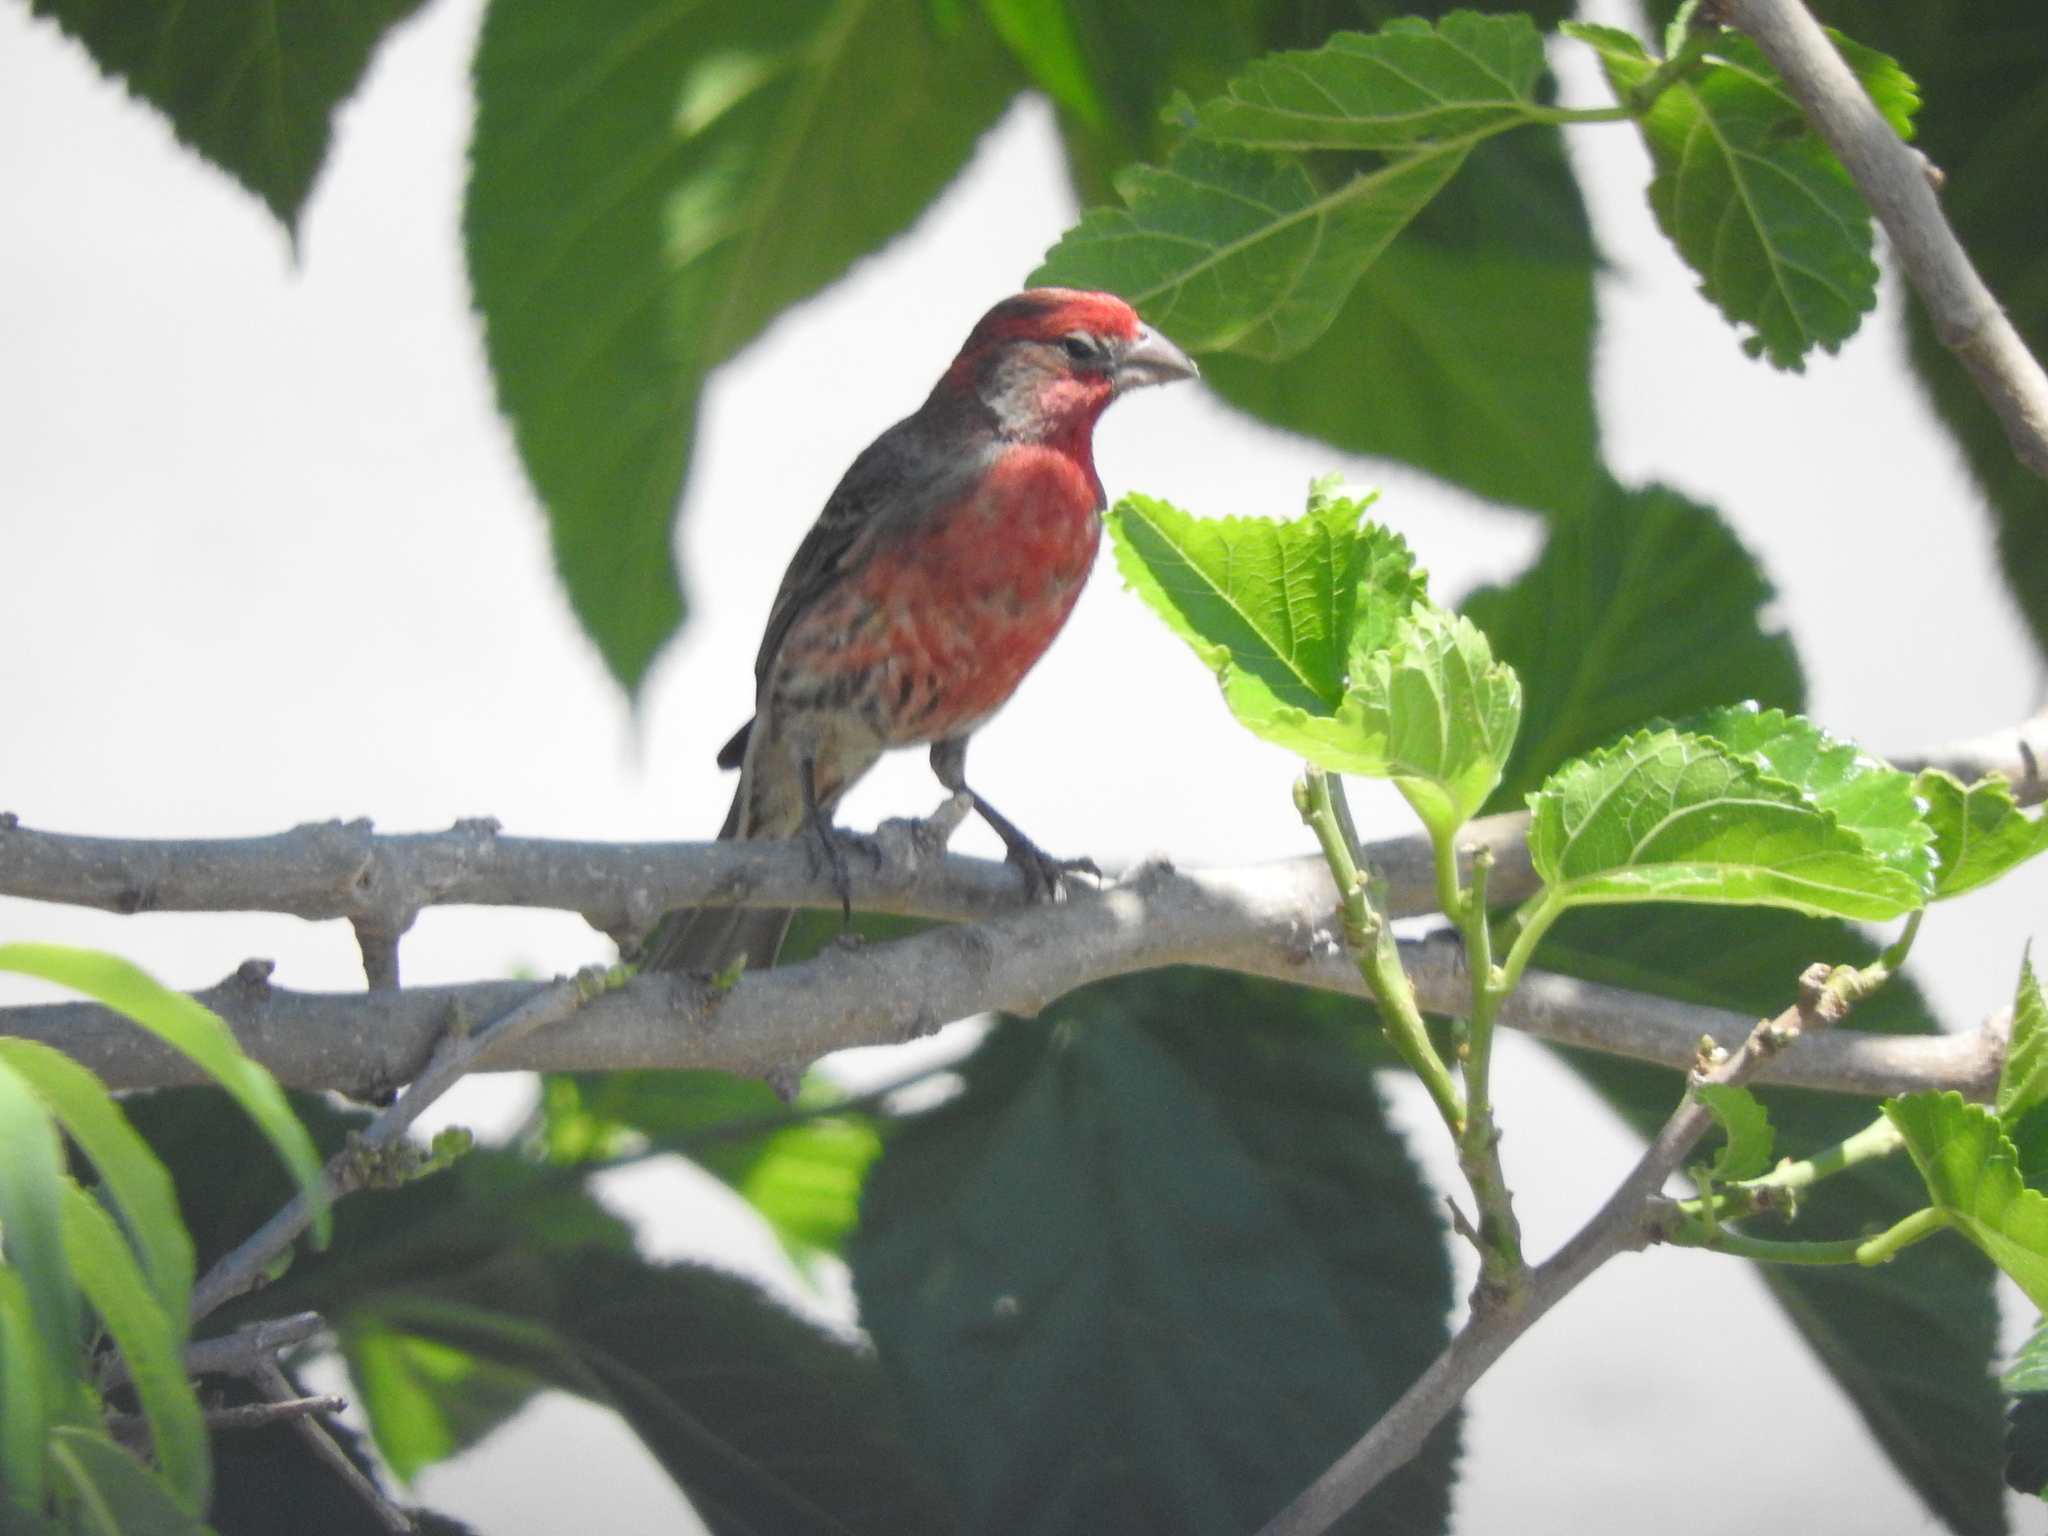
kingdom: Animalia
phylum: Chordata
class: Aves
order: Passeriformes
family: Fringillidae
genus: Haemorhous
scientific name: Haemorhous mexicanus
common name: House finch
